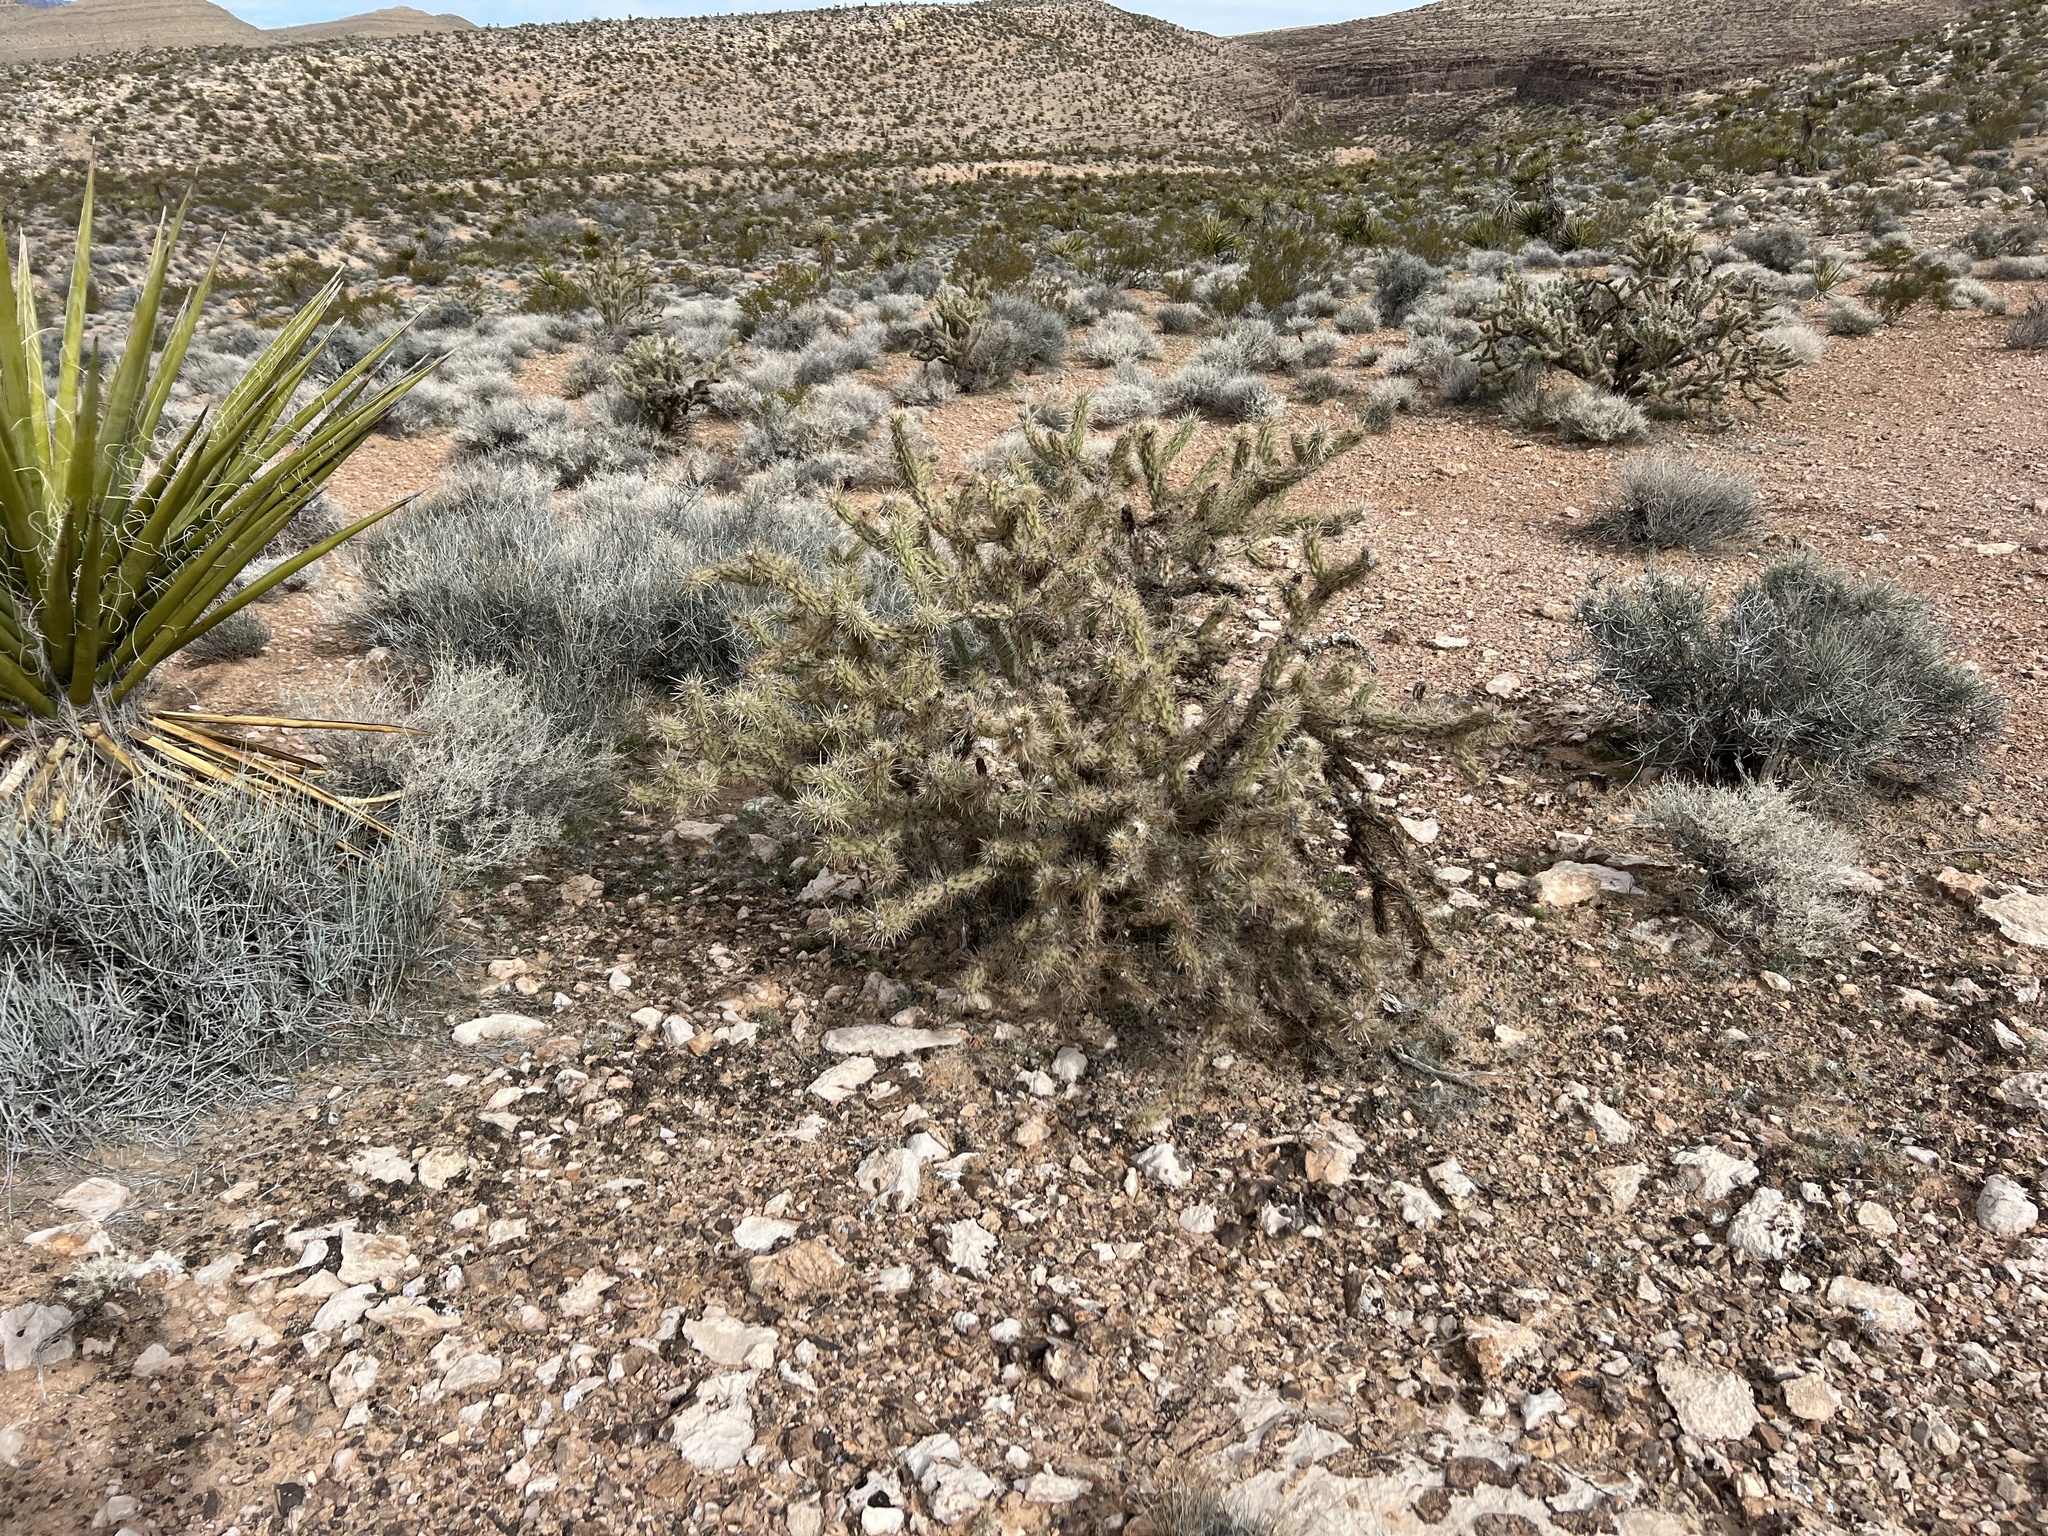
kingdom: Plantae
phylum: Tracheophyta
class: Magnoliopsida
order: Caryophyllales
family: Cactaceae
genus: Cylindropuntia
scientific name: Cylindropuntia acanthocarpa
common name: Buckhorn cholla
